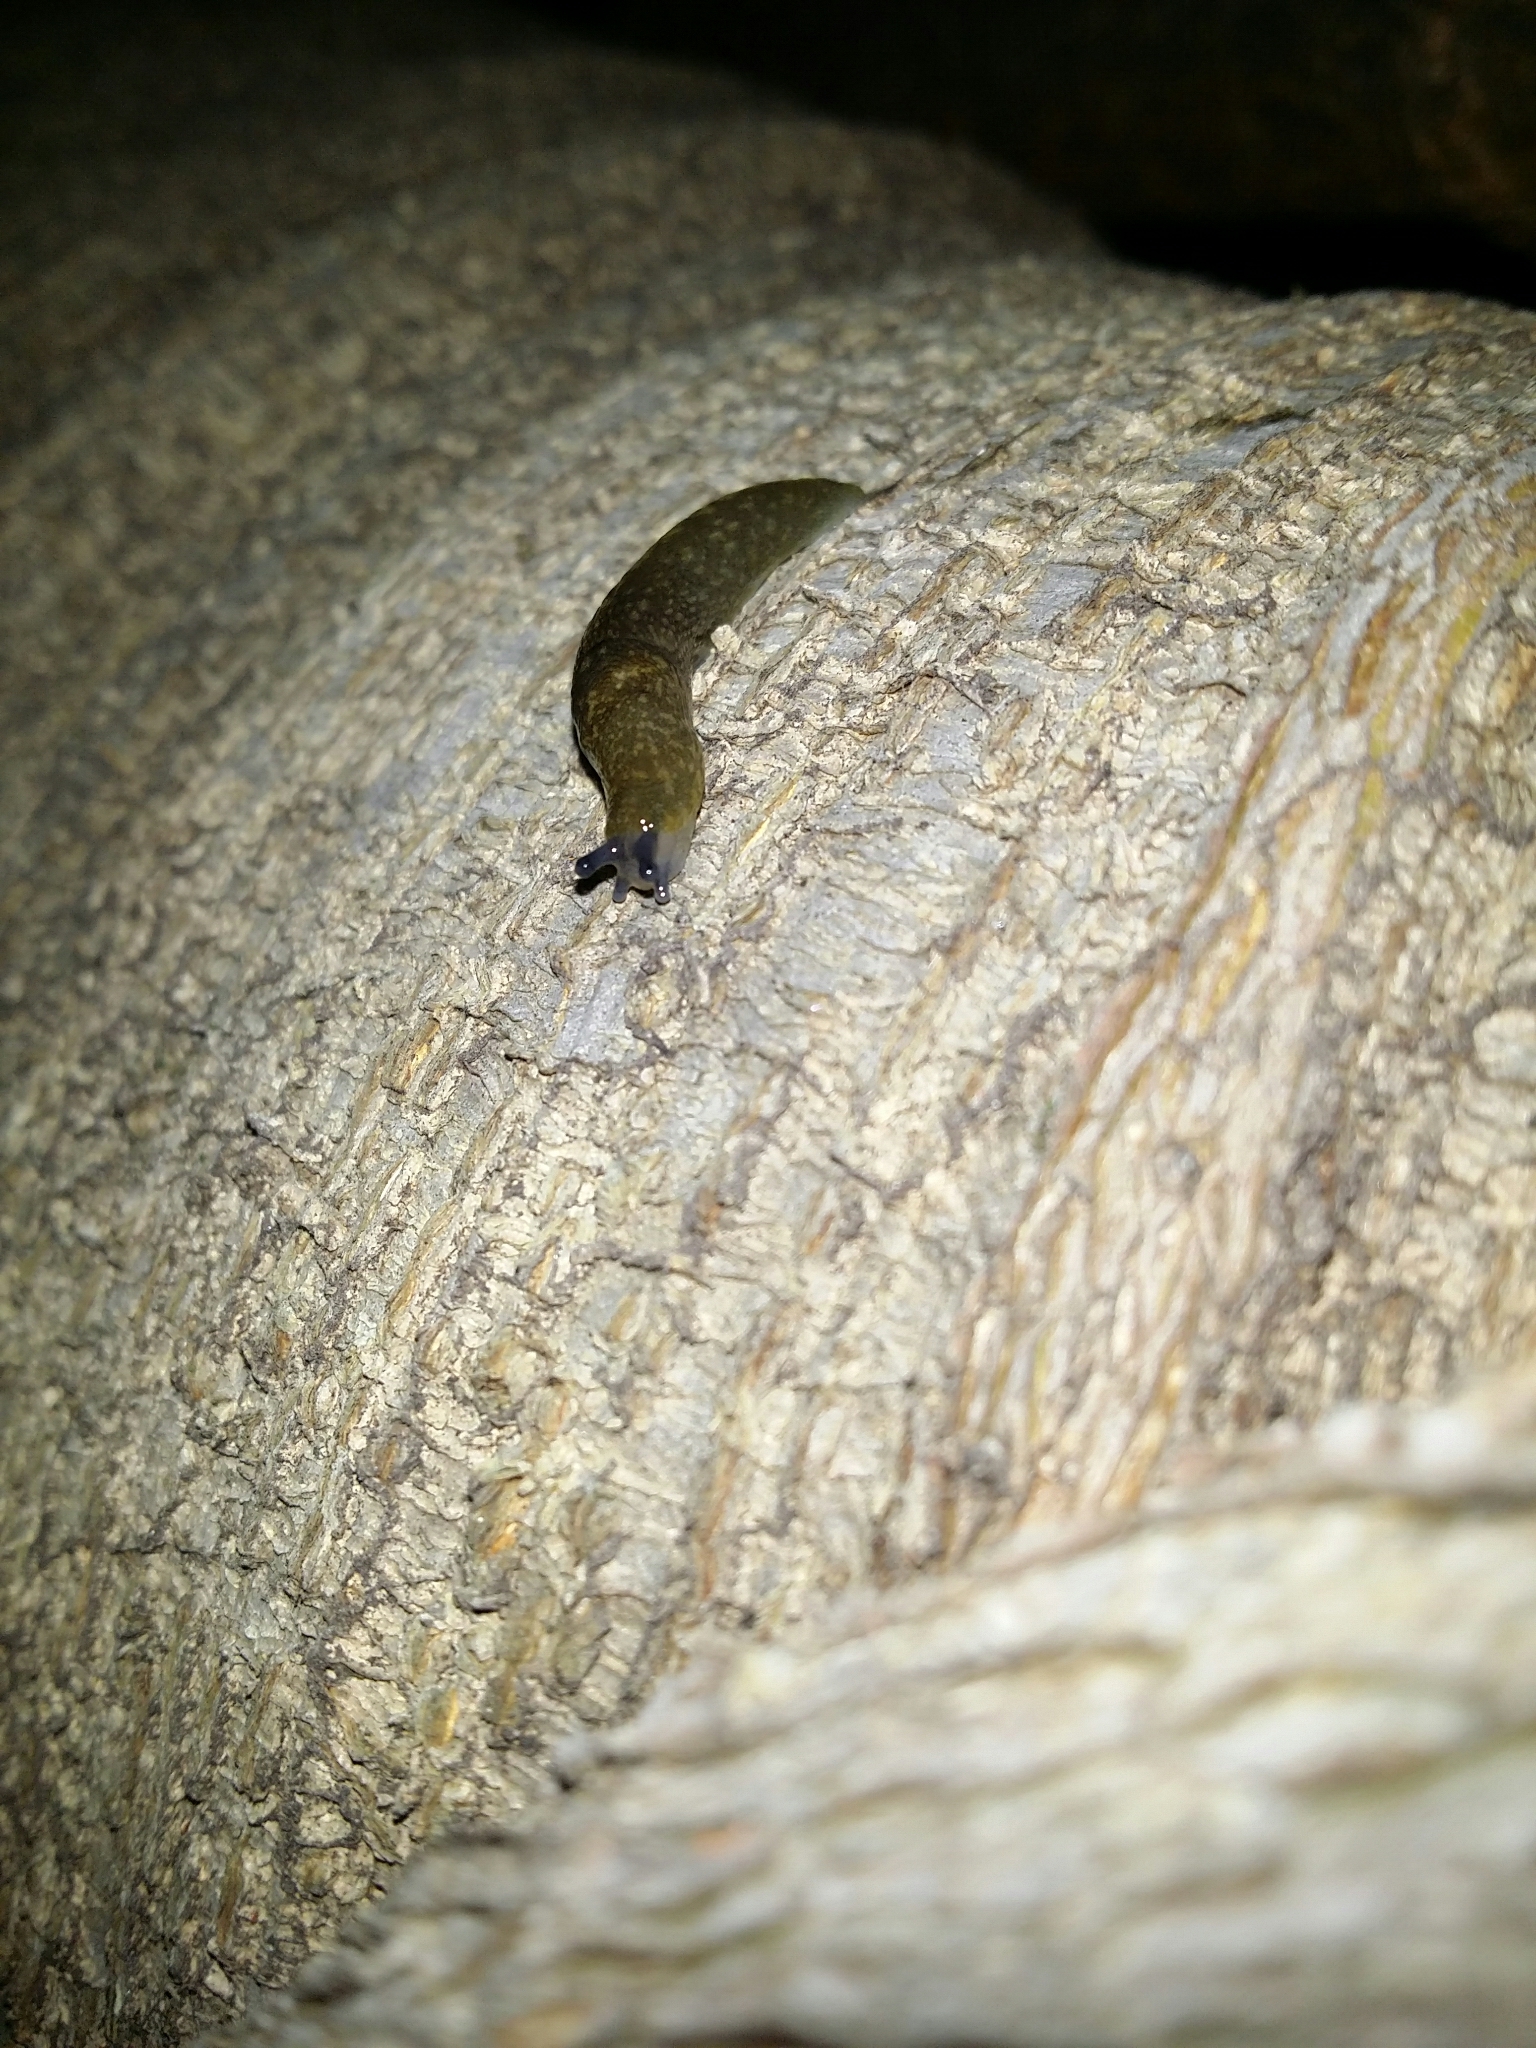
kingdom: Animalia
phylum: Mollusca
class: Gastropoda
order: Stylommatophora
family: Limacidae
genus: Limacus
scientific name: Limacus flavus
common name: Yellow gardenslug
